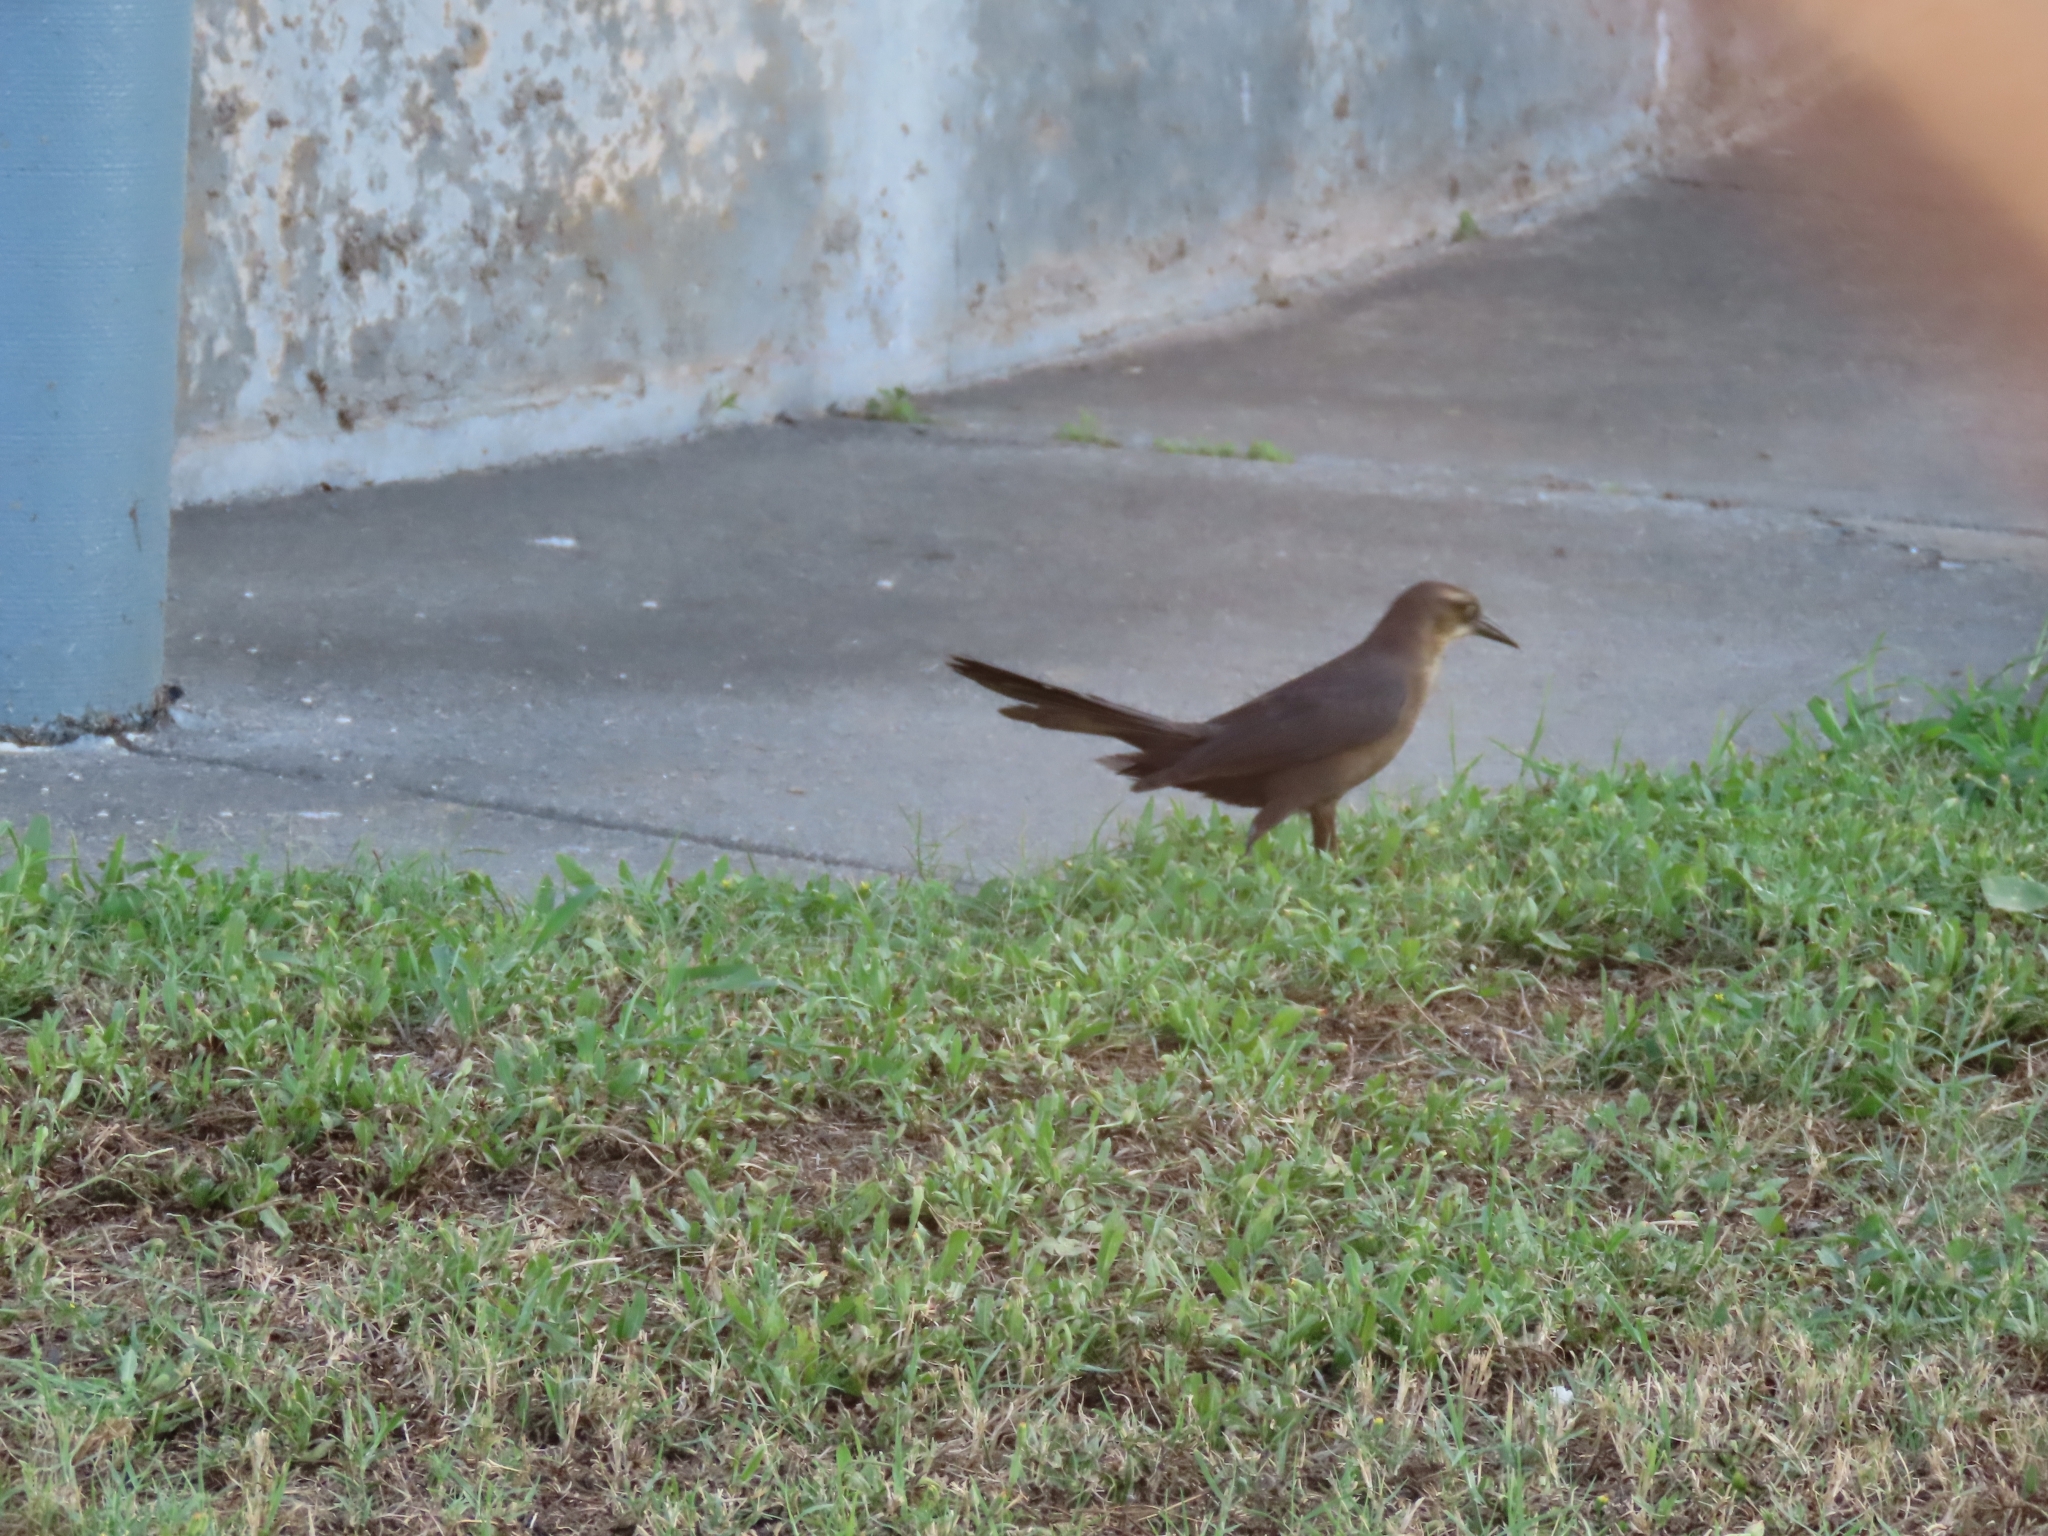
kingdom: Animalia
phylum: Chordata
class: Aves
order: Passeriformes
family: Icteridae
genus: Quiscalus
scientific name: Quiscalus mexicanus
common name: Great-tailed grackle
